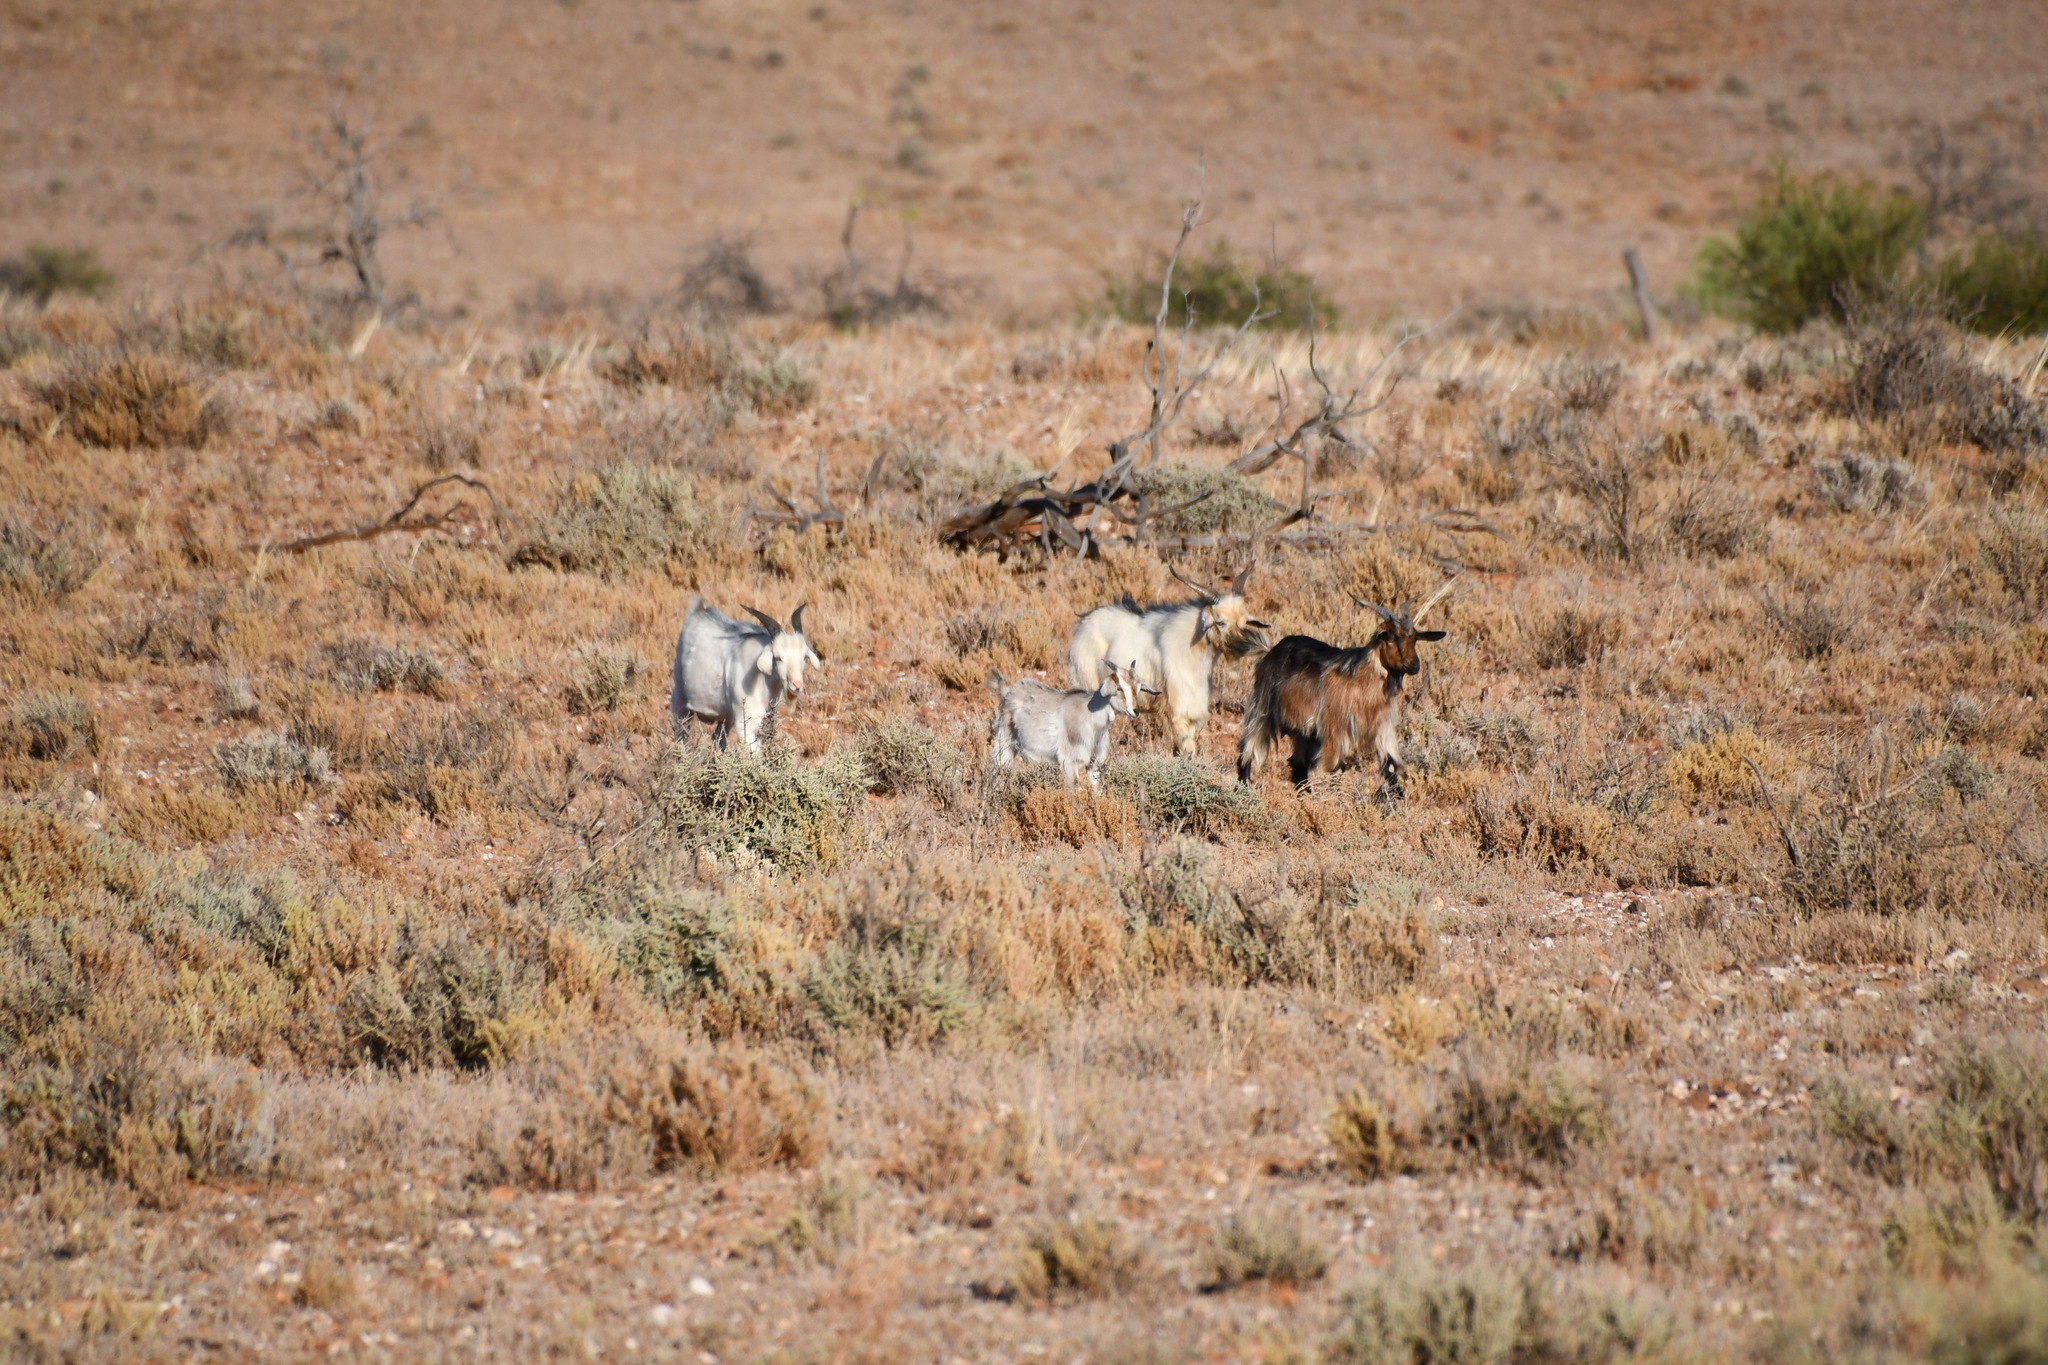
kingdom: Animalia
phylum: Chordata
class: Mammalia
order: Artiodactyla
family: Bovidae
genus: Capra
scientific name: Capra hircus
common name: Domestic goat
